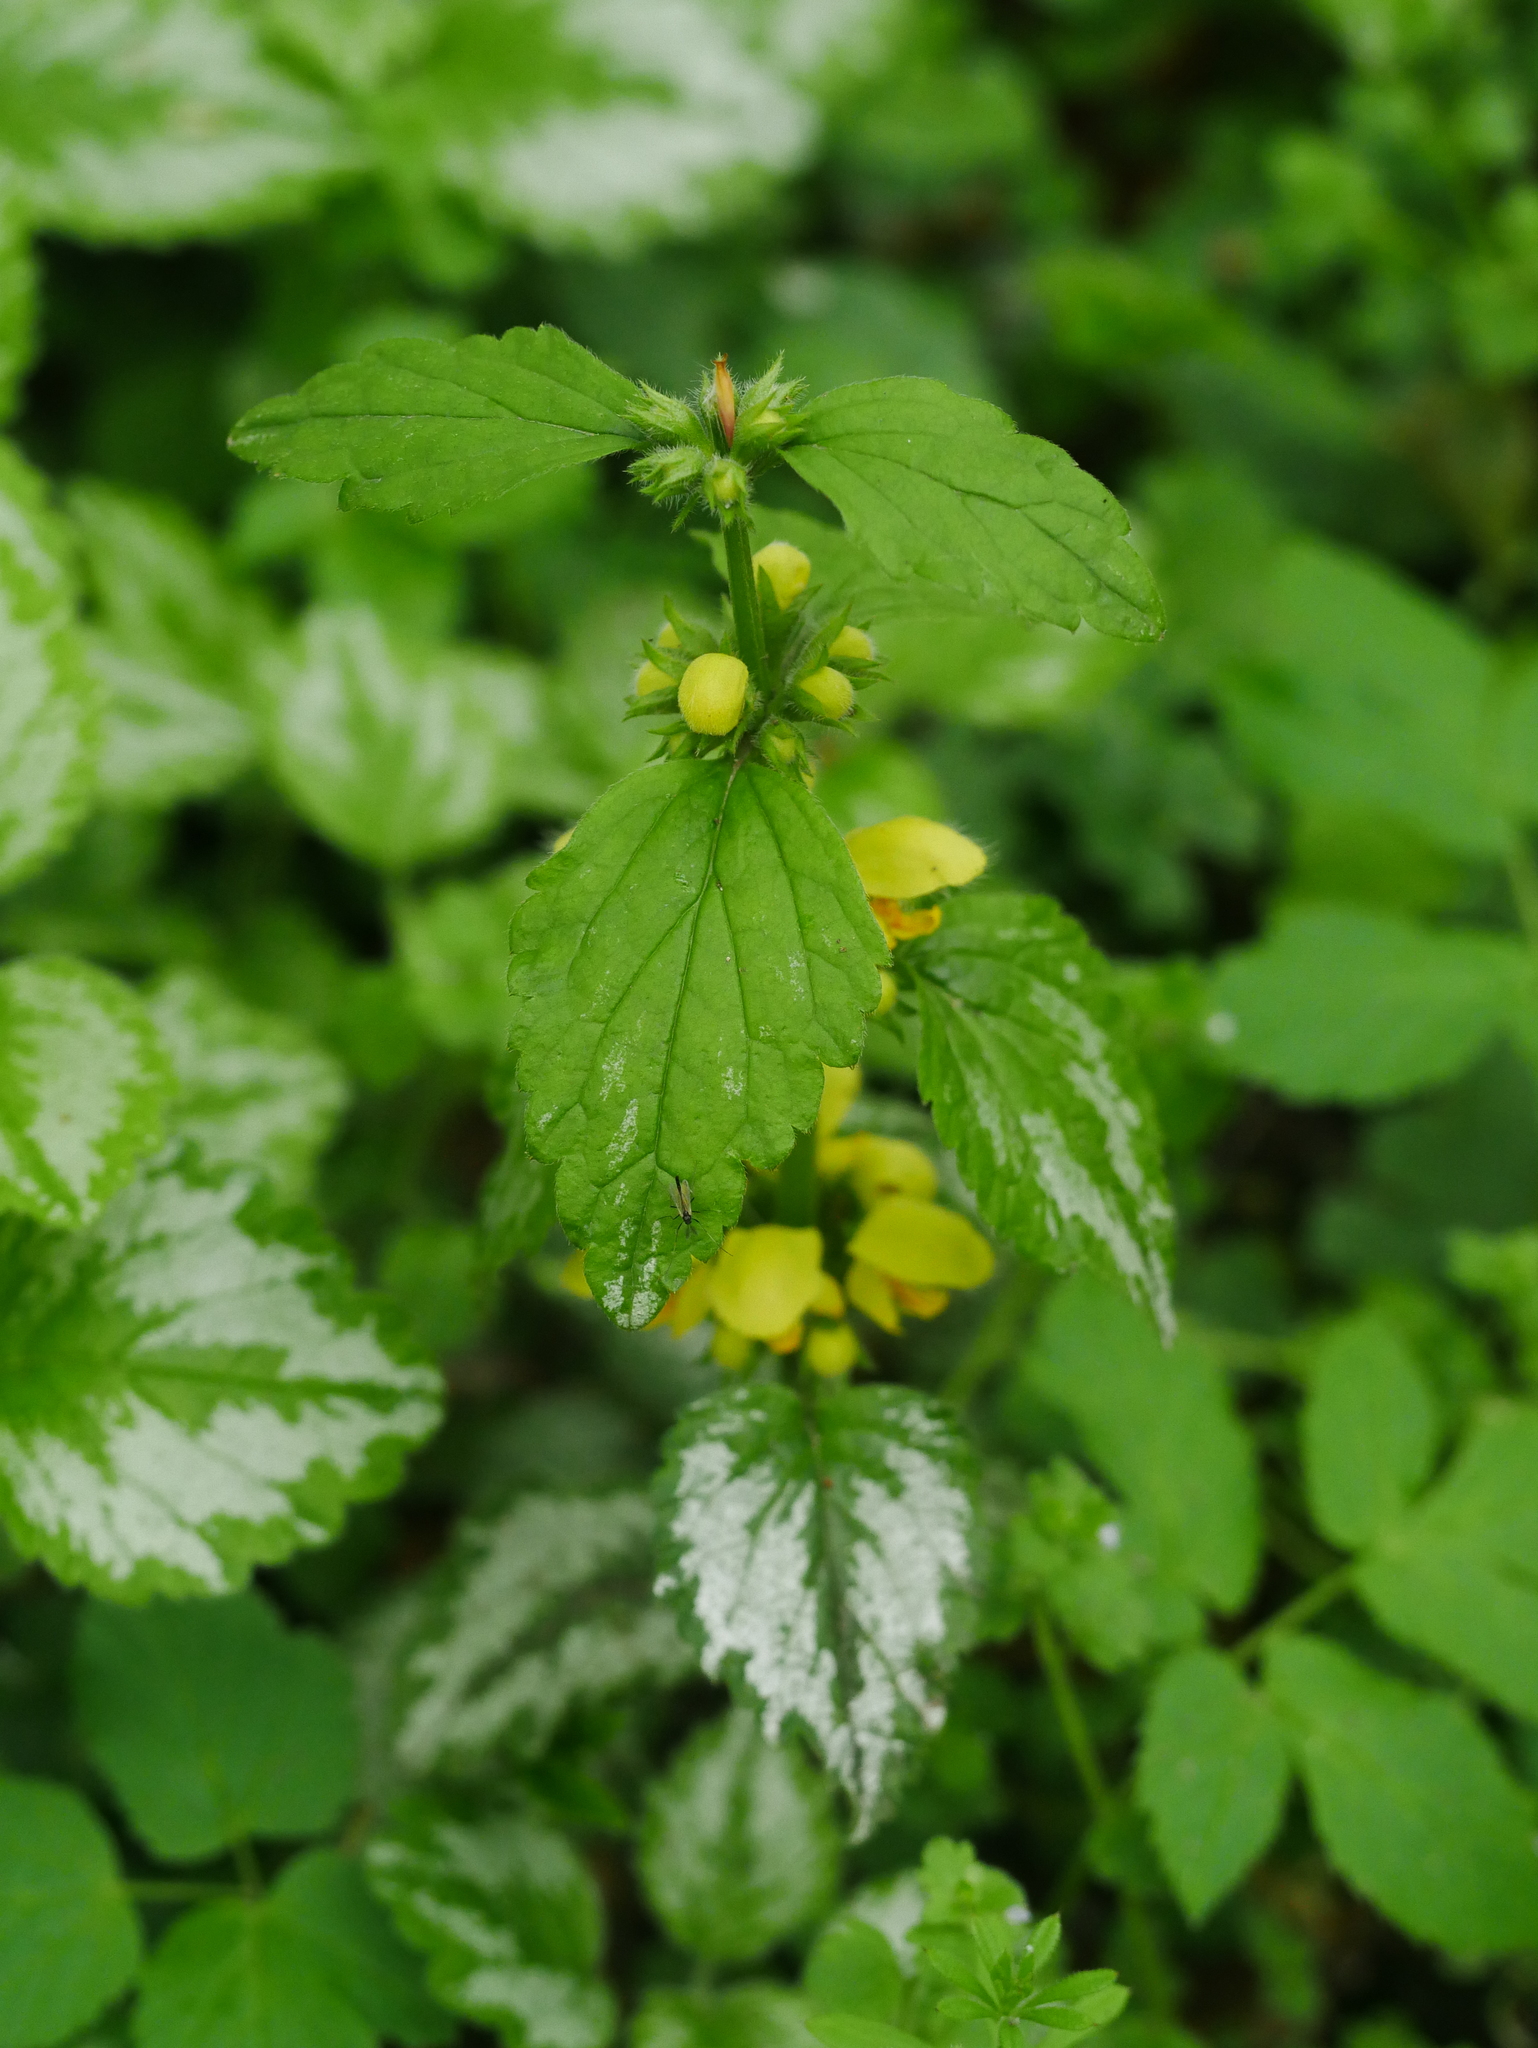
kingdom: Plantae
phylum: Tracheophyta
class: Magnoliopsida
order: Lamiales
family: Lamiaceae
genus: Lamium
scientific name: Lamium galeobdolon
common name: Yellow archangel
